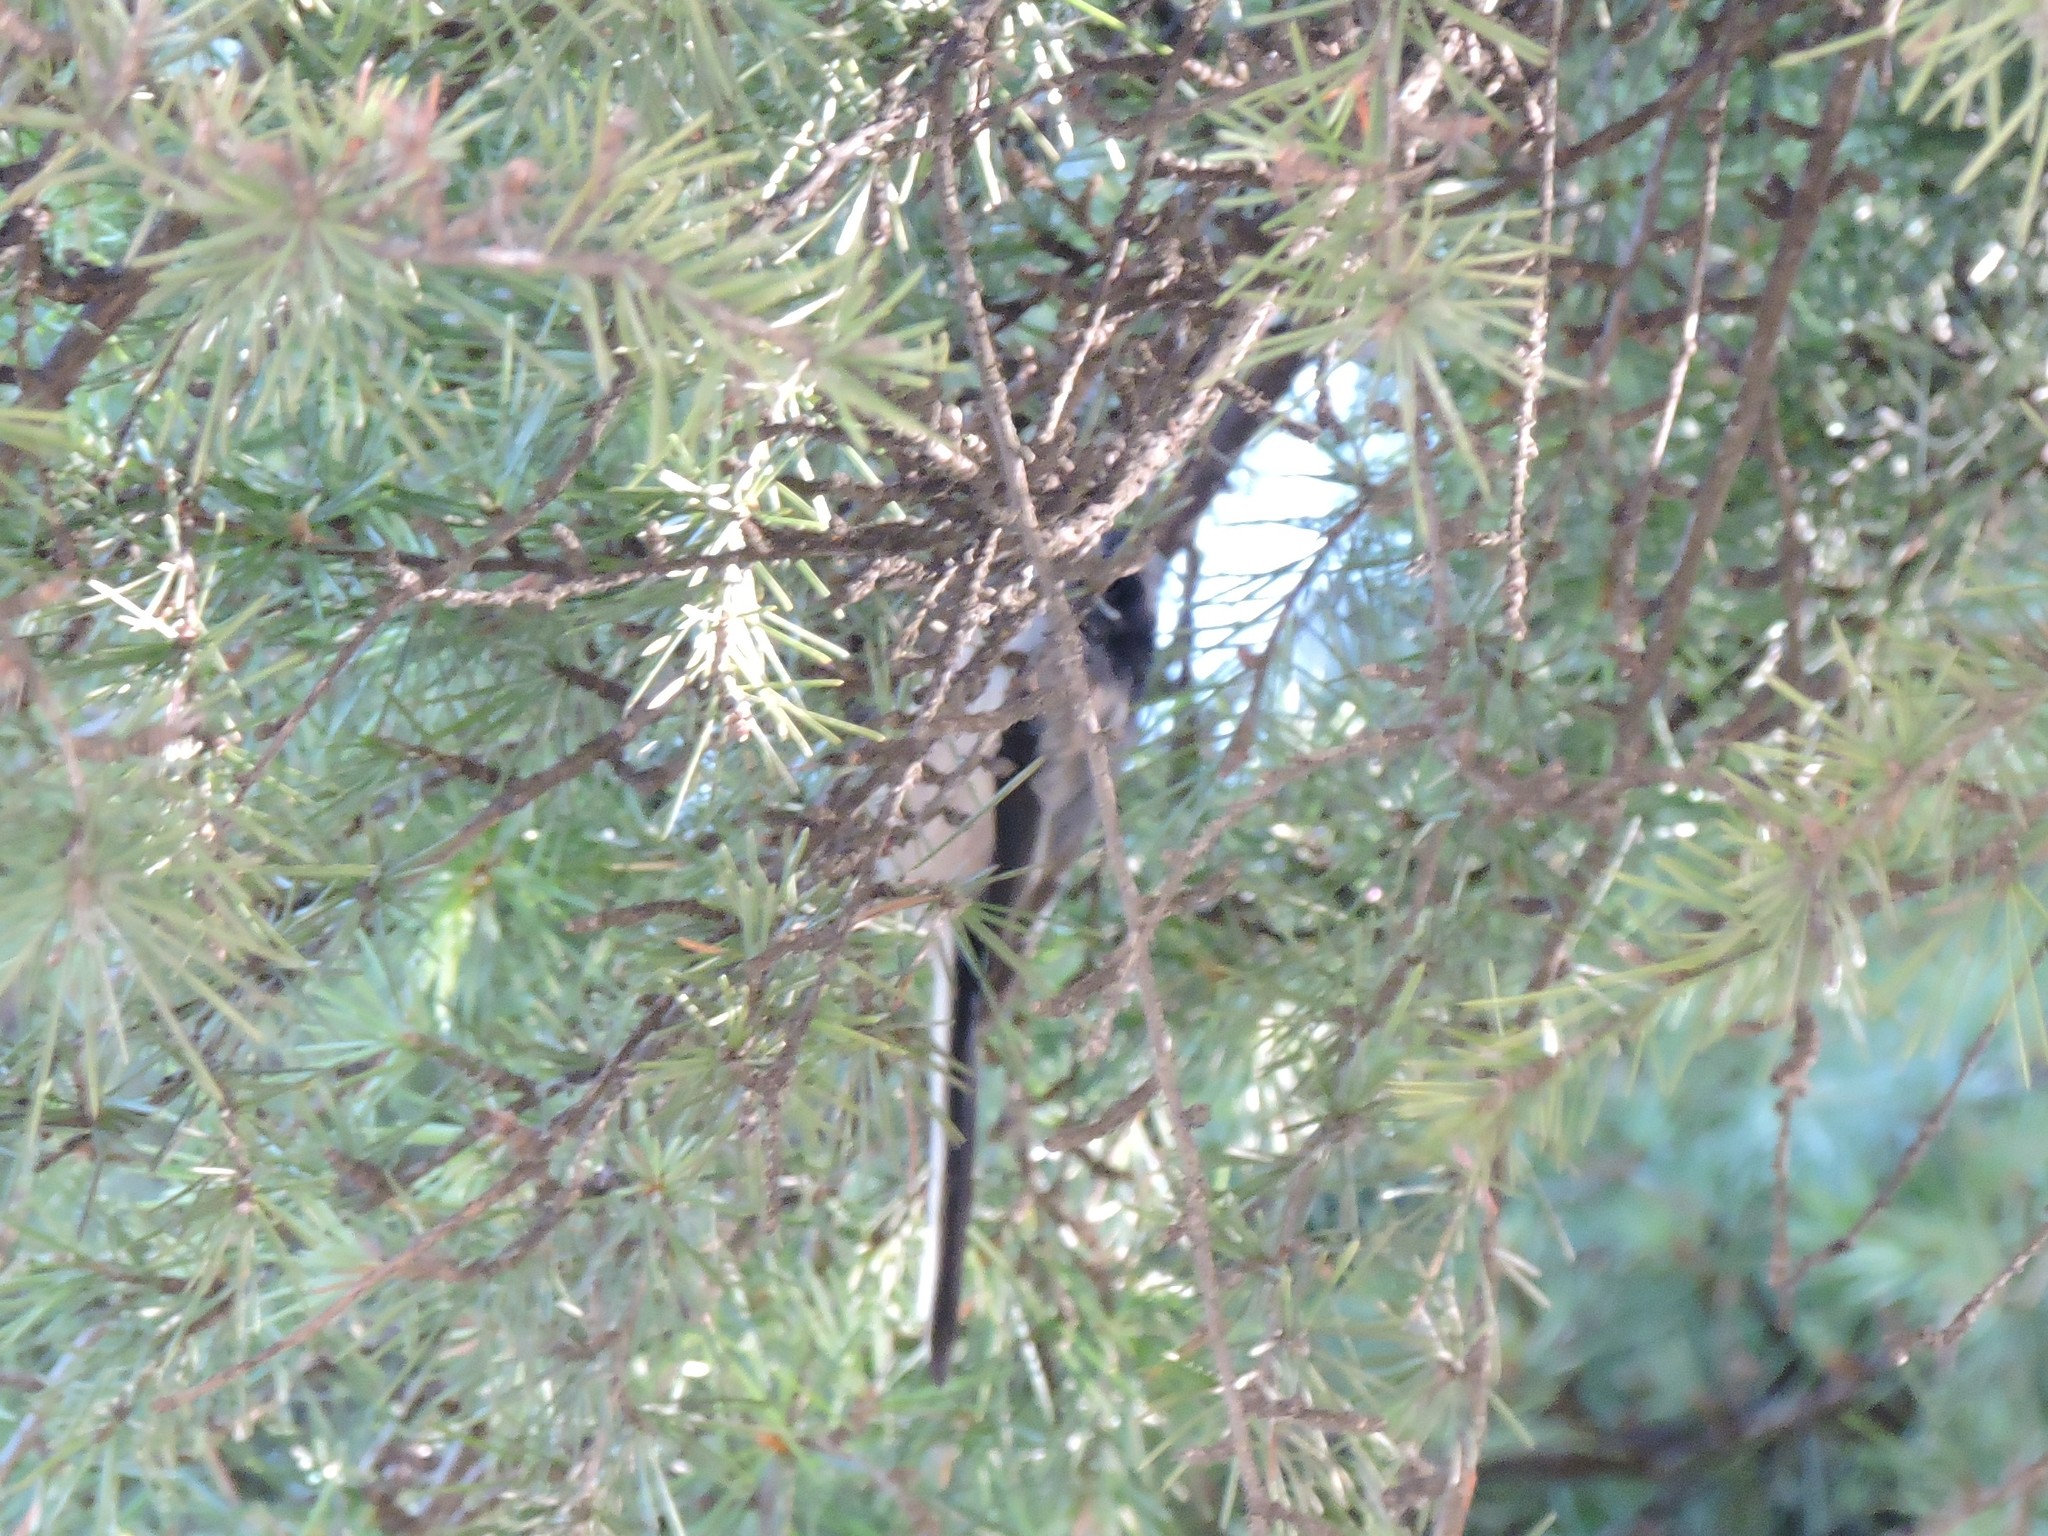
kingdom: Animalia
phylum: Chordata
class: Aves
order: Passeriformes
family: Aegithalidae
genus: Aegithalos
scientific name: Aegithalos caudatus
